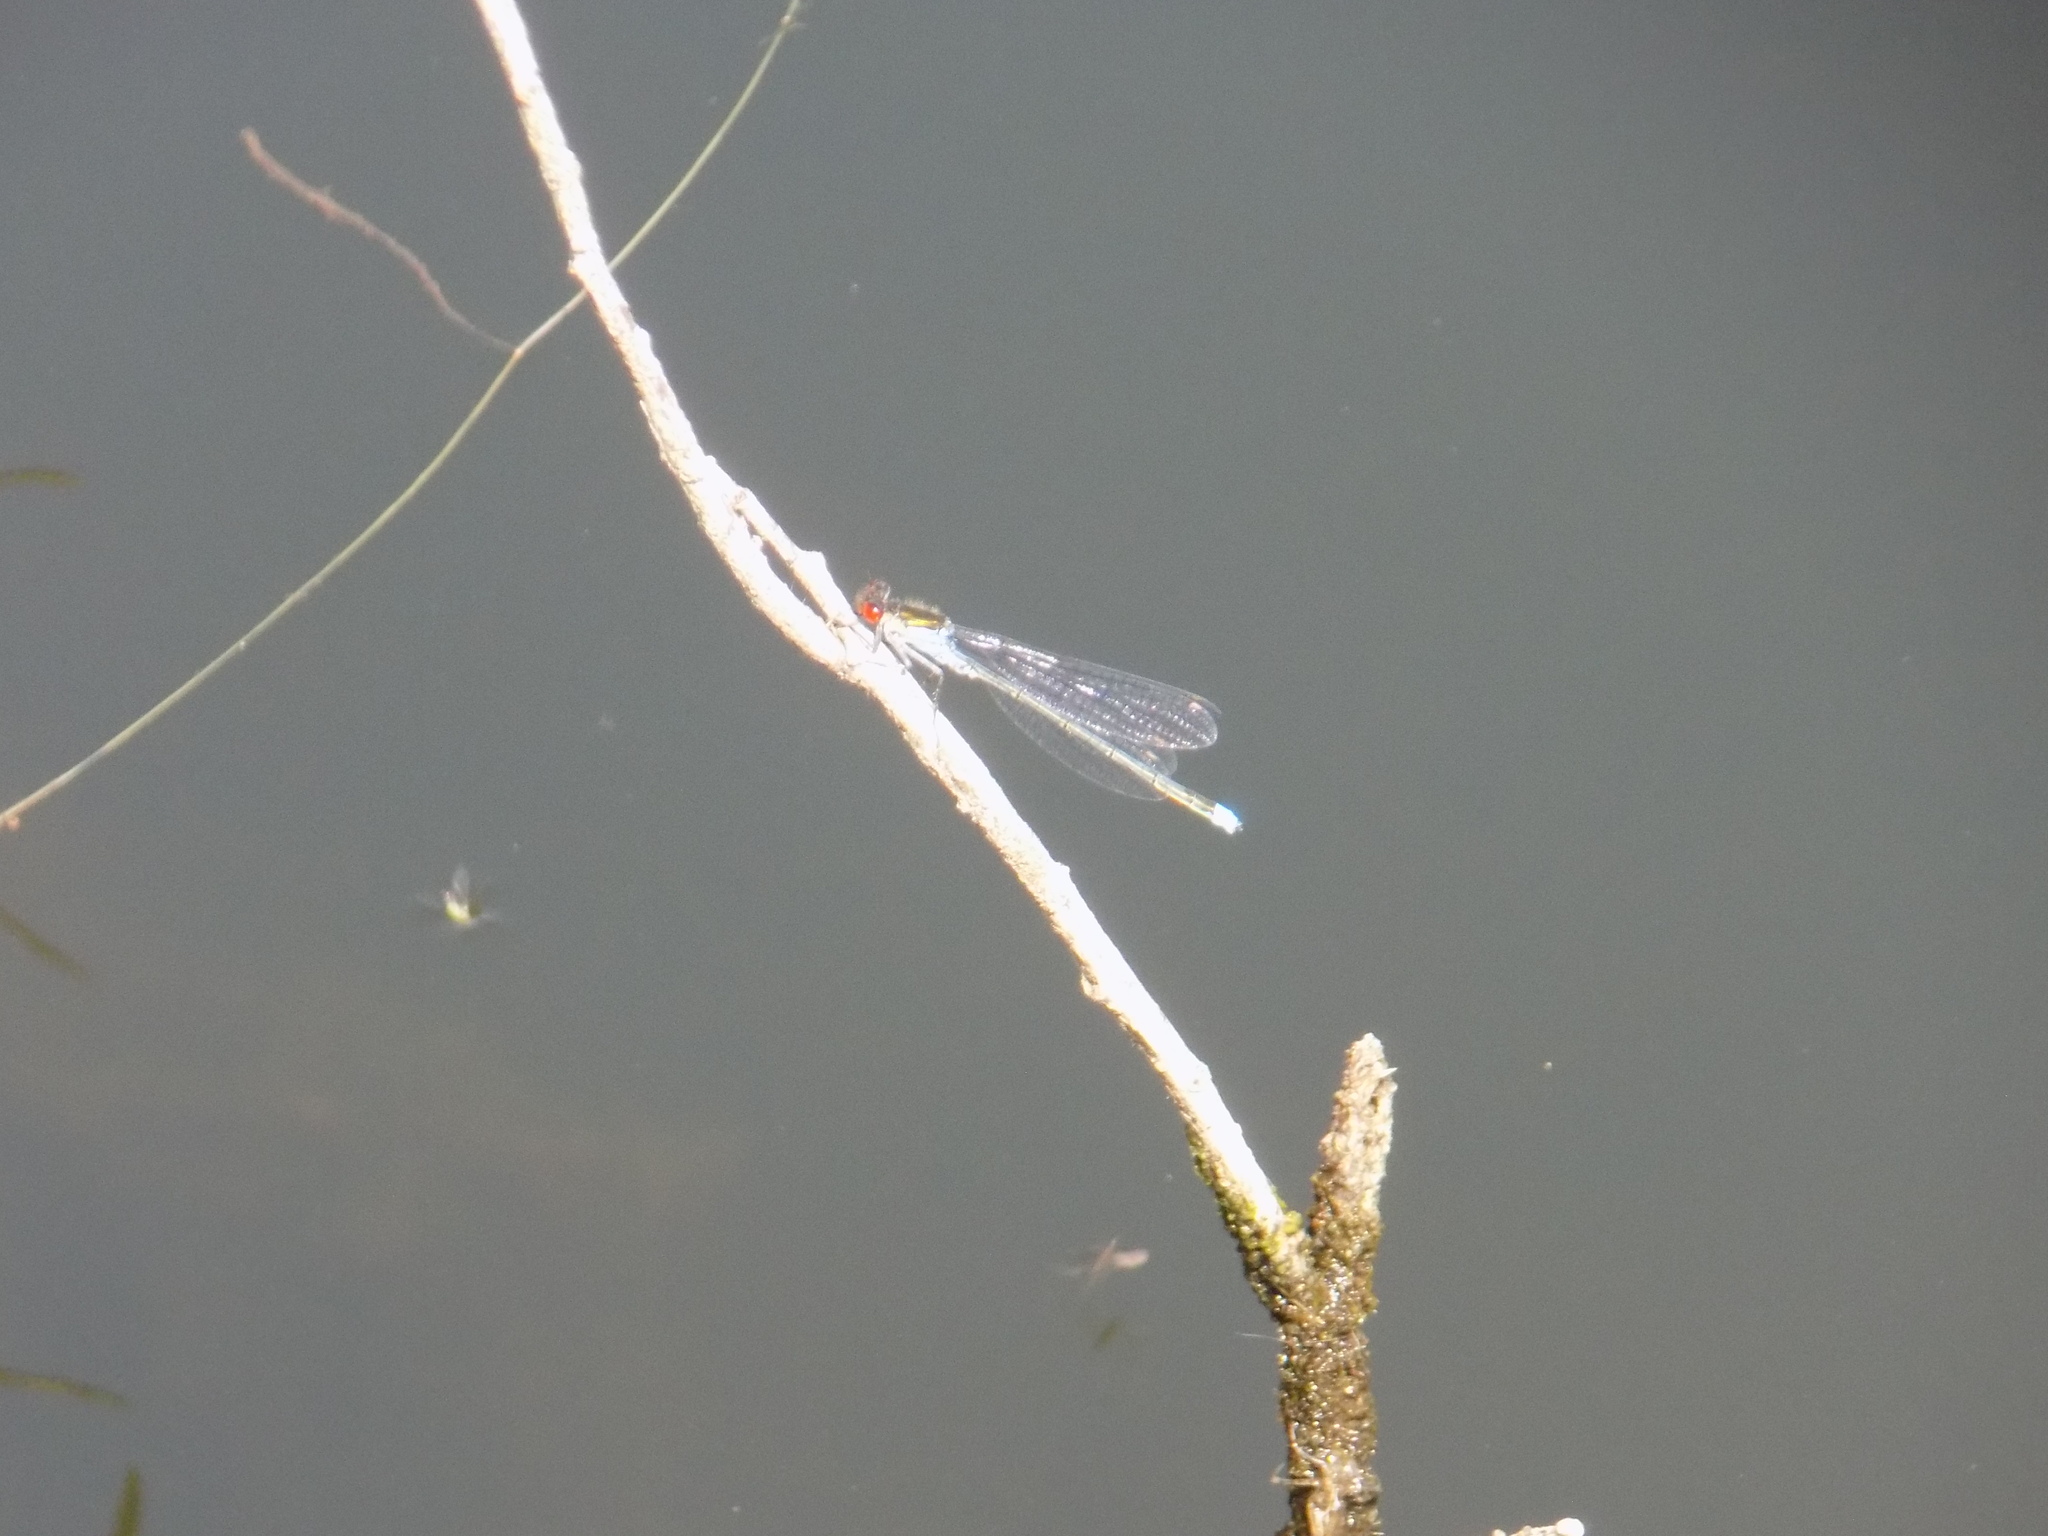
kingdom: Animalia
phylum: Arthropoda
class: Insecta
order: Odonata
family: Coenagrionidae
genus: Erythromma
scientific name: Erythromma najas
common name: Red-eyed damselfly
